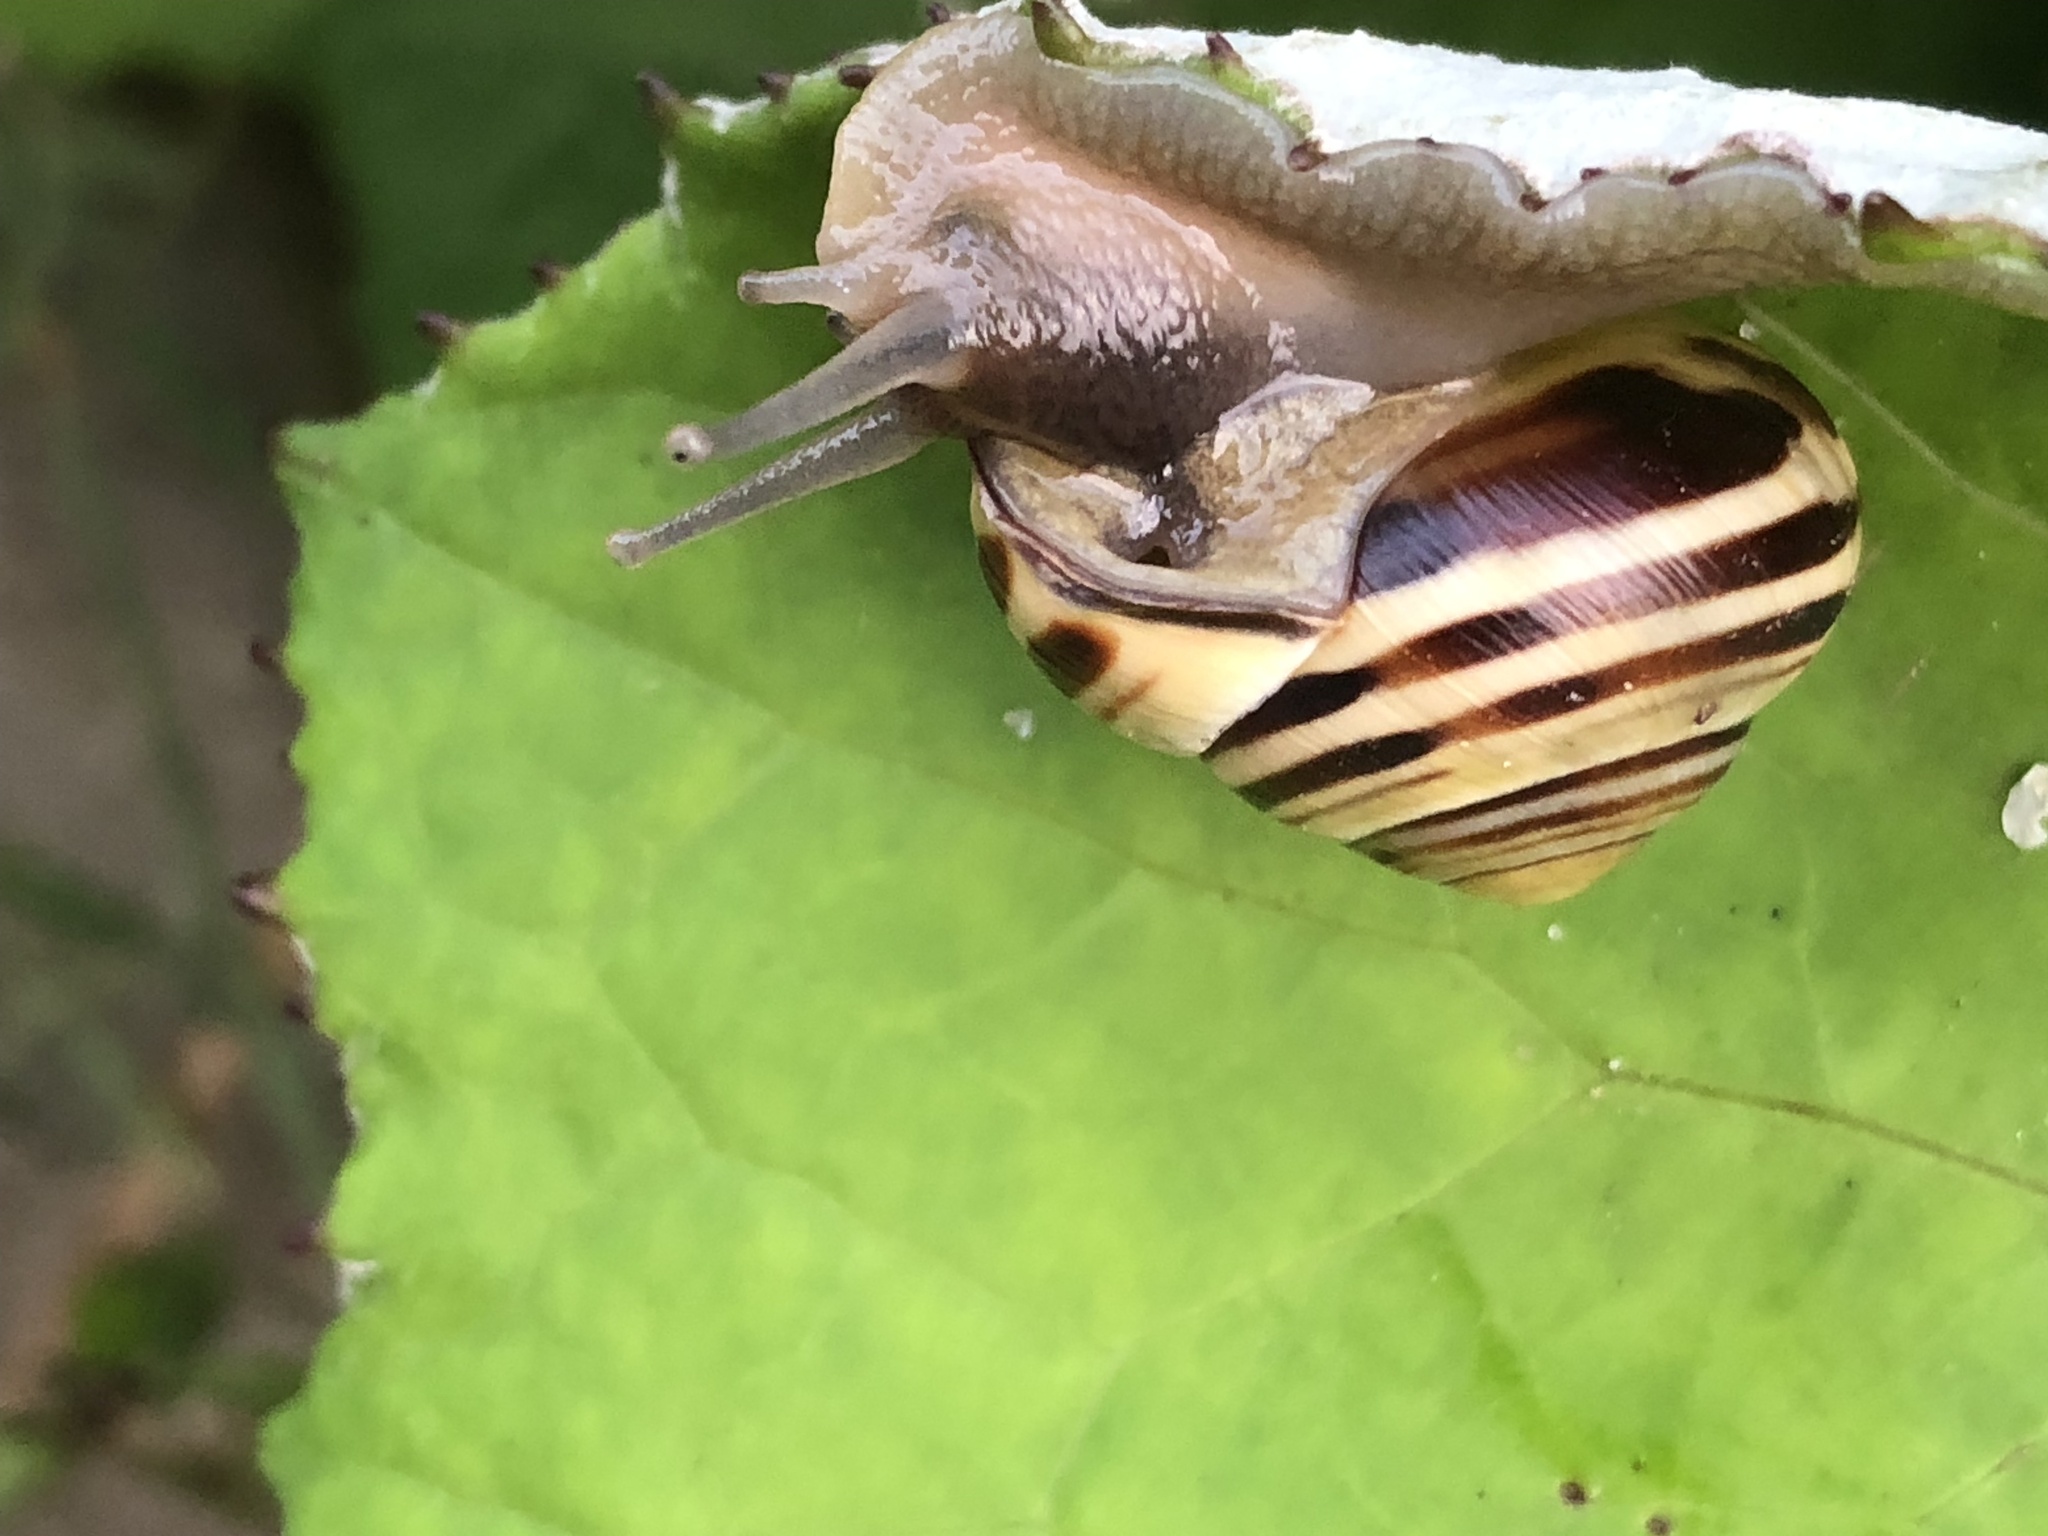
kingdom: Animalia
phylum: Mollusca
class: Gastropoda
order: Stylommatophora
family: Helicidae
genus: Cepaea
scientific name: Cepaea nemoralis
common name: Grovesnail
